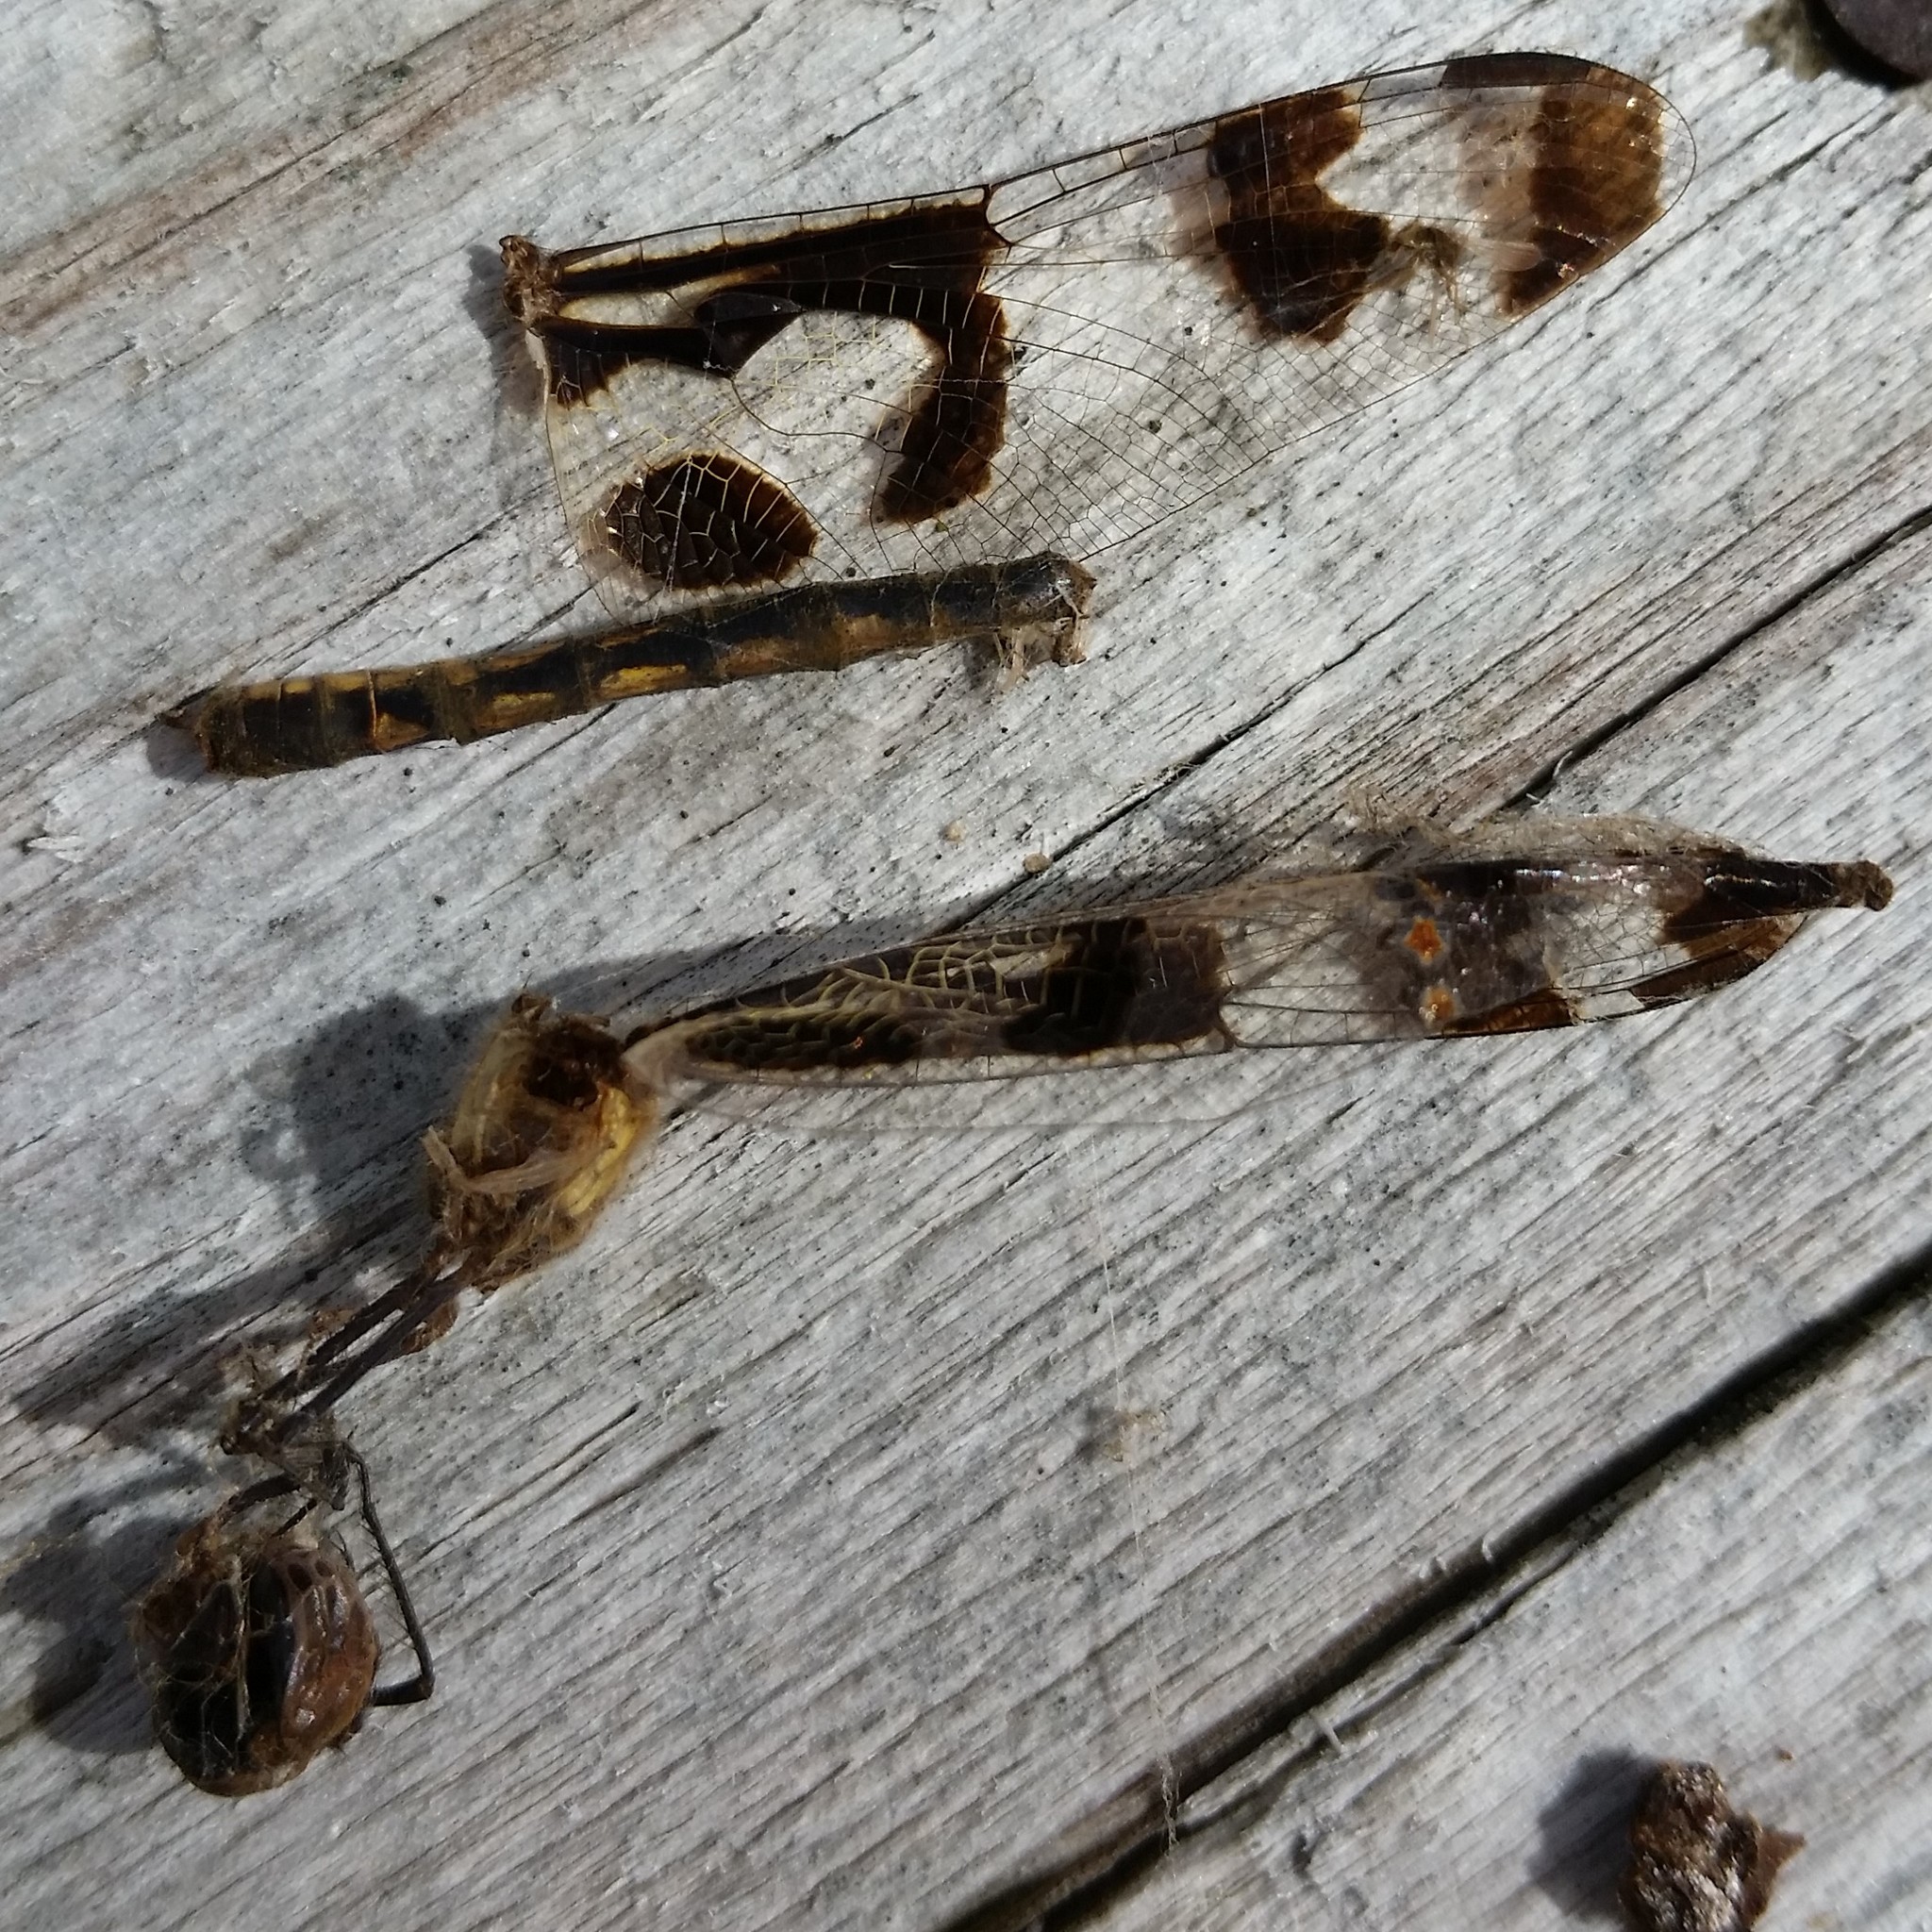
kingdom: Animalia
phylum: Arthropoda
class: Insecta
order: Odonata
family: Libellulidae
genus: Celithemis
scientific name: Celithemis fasciata
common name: Banded pennant
